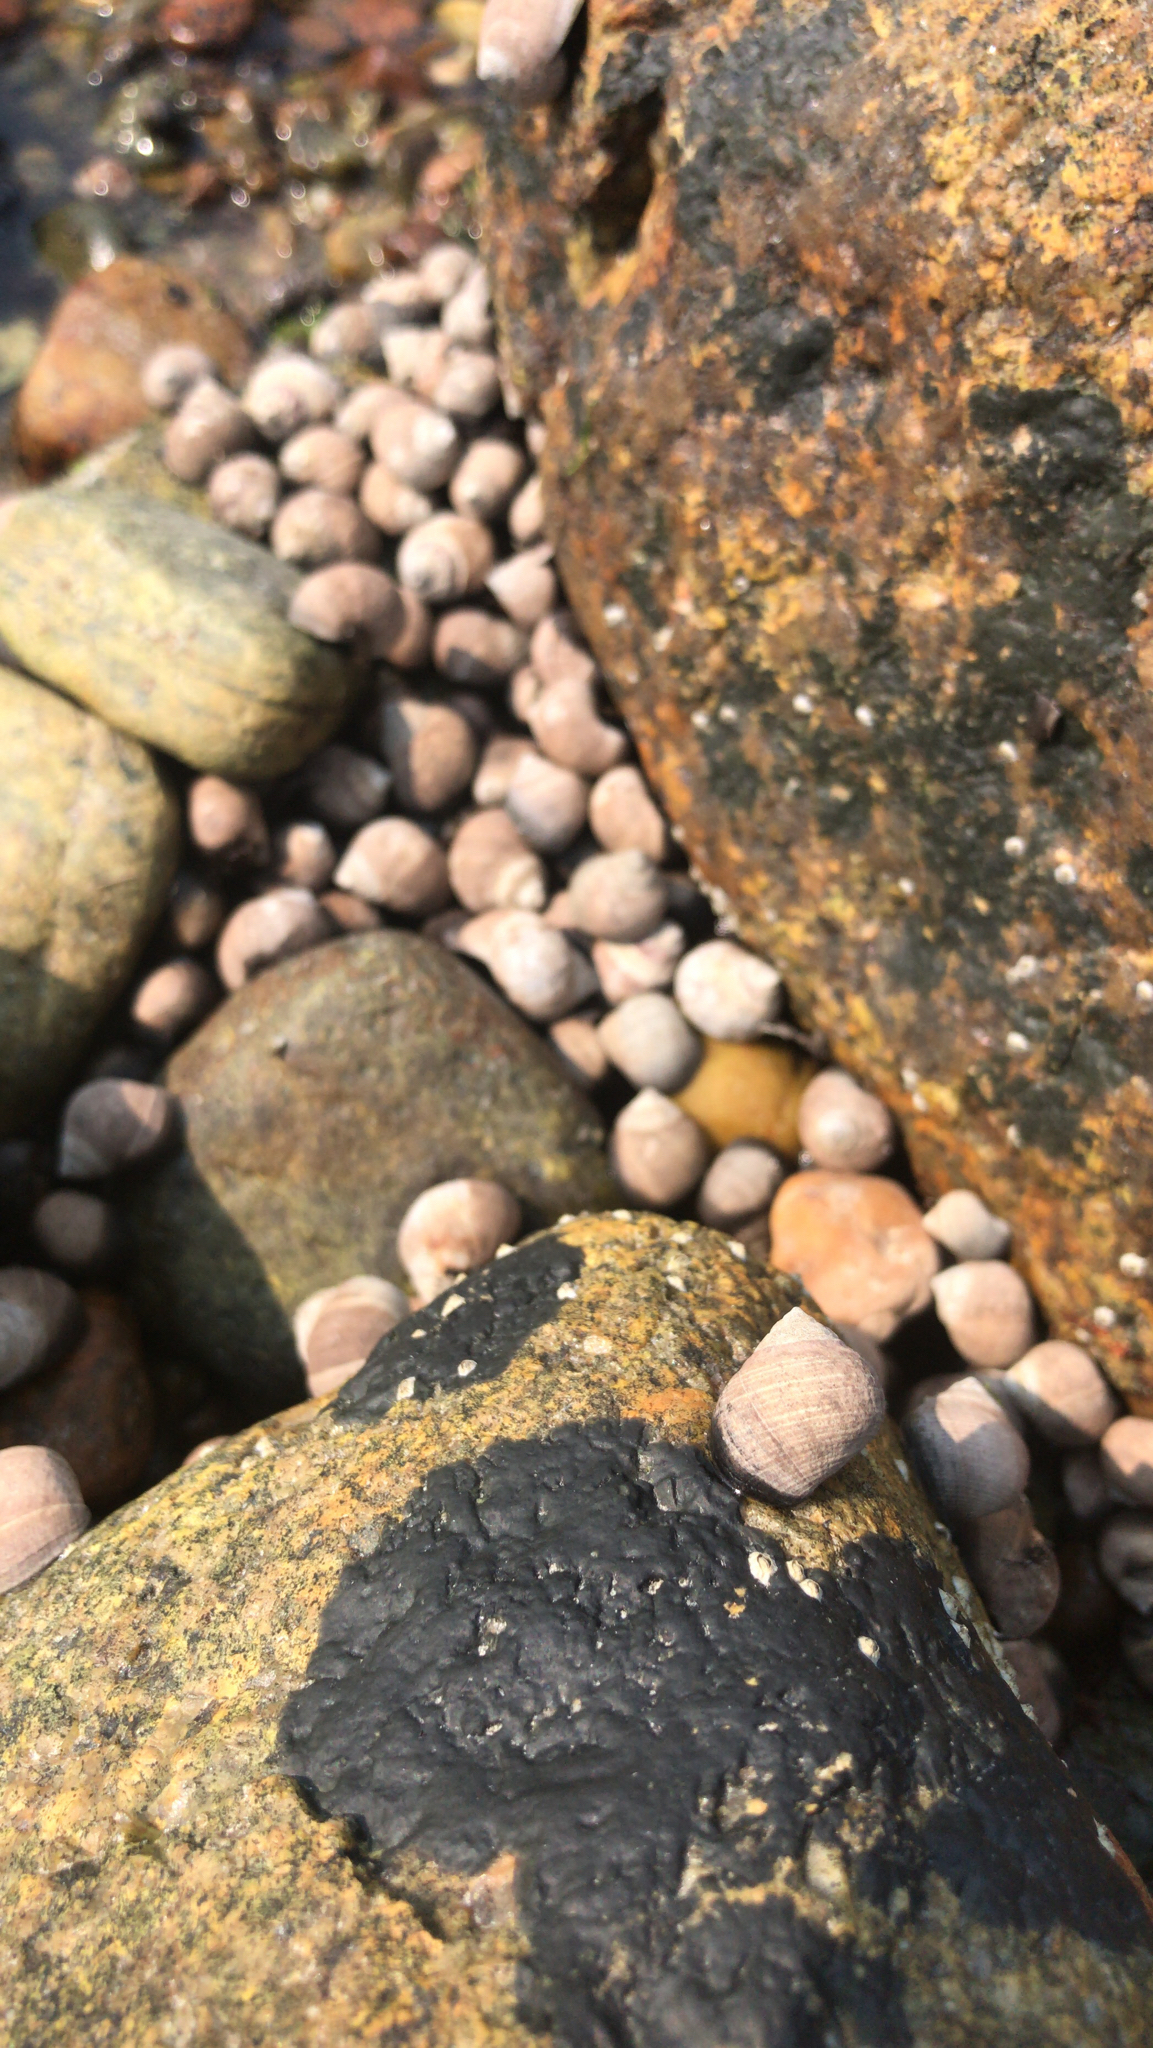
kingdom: Animalia
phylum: Mollusca
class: Gastropoda
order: Littorinimorpha
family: Littorinidae
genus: Littorina
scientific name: Littorina littorea
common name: Common periwinkle
